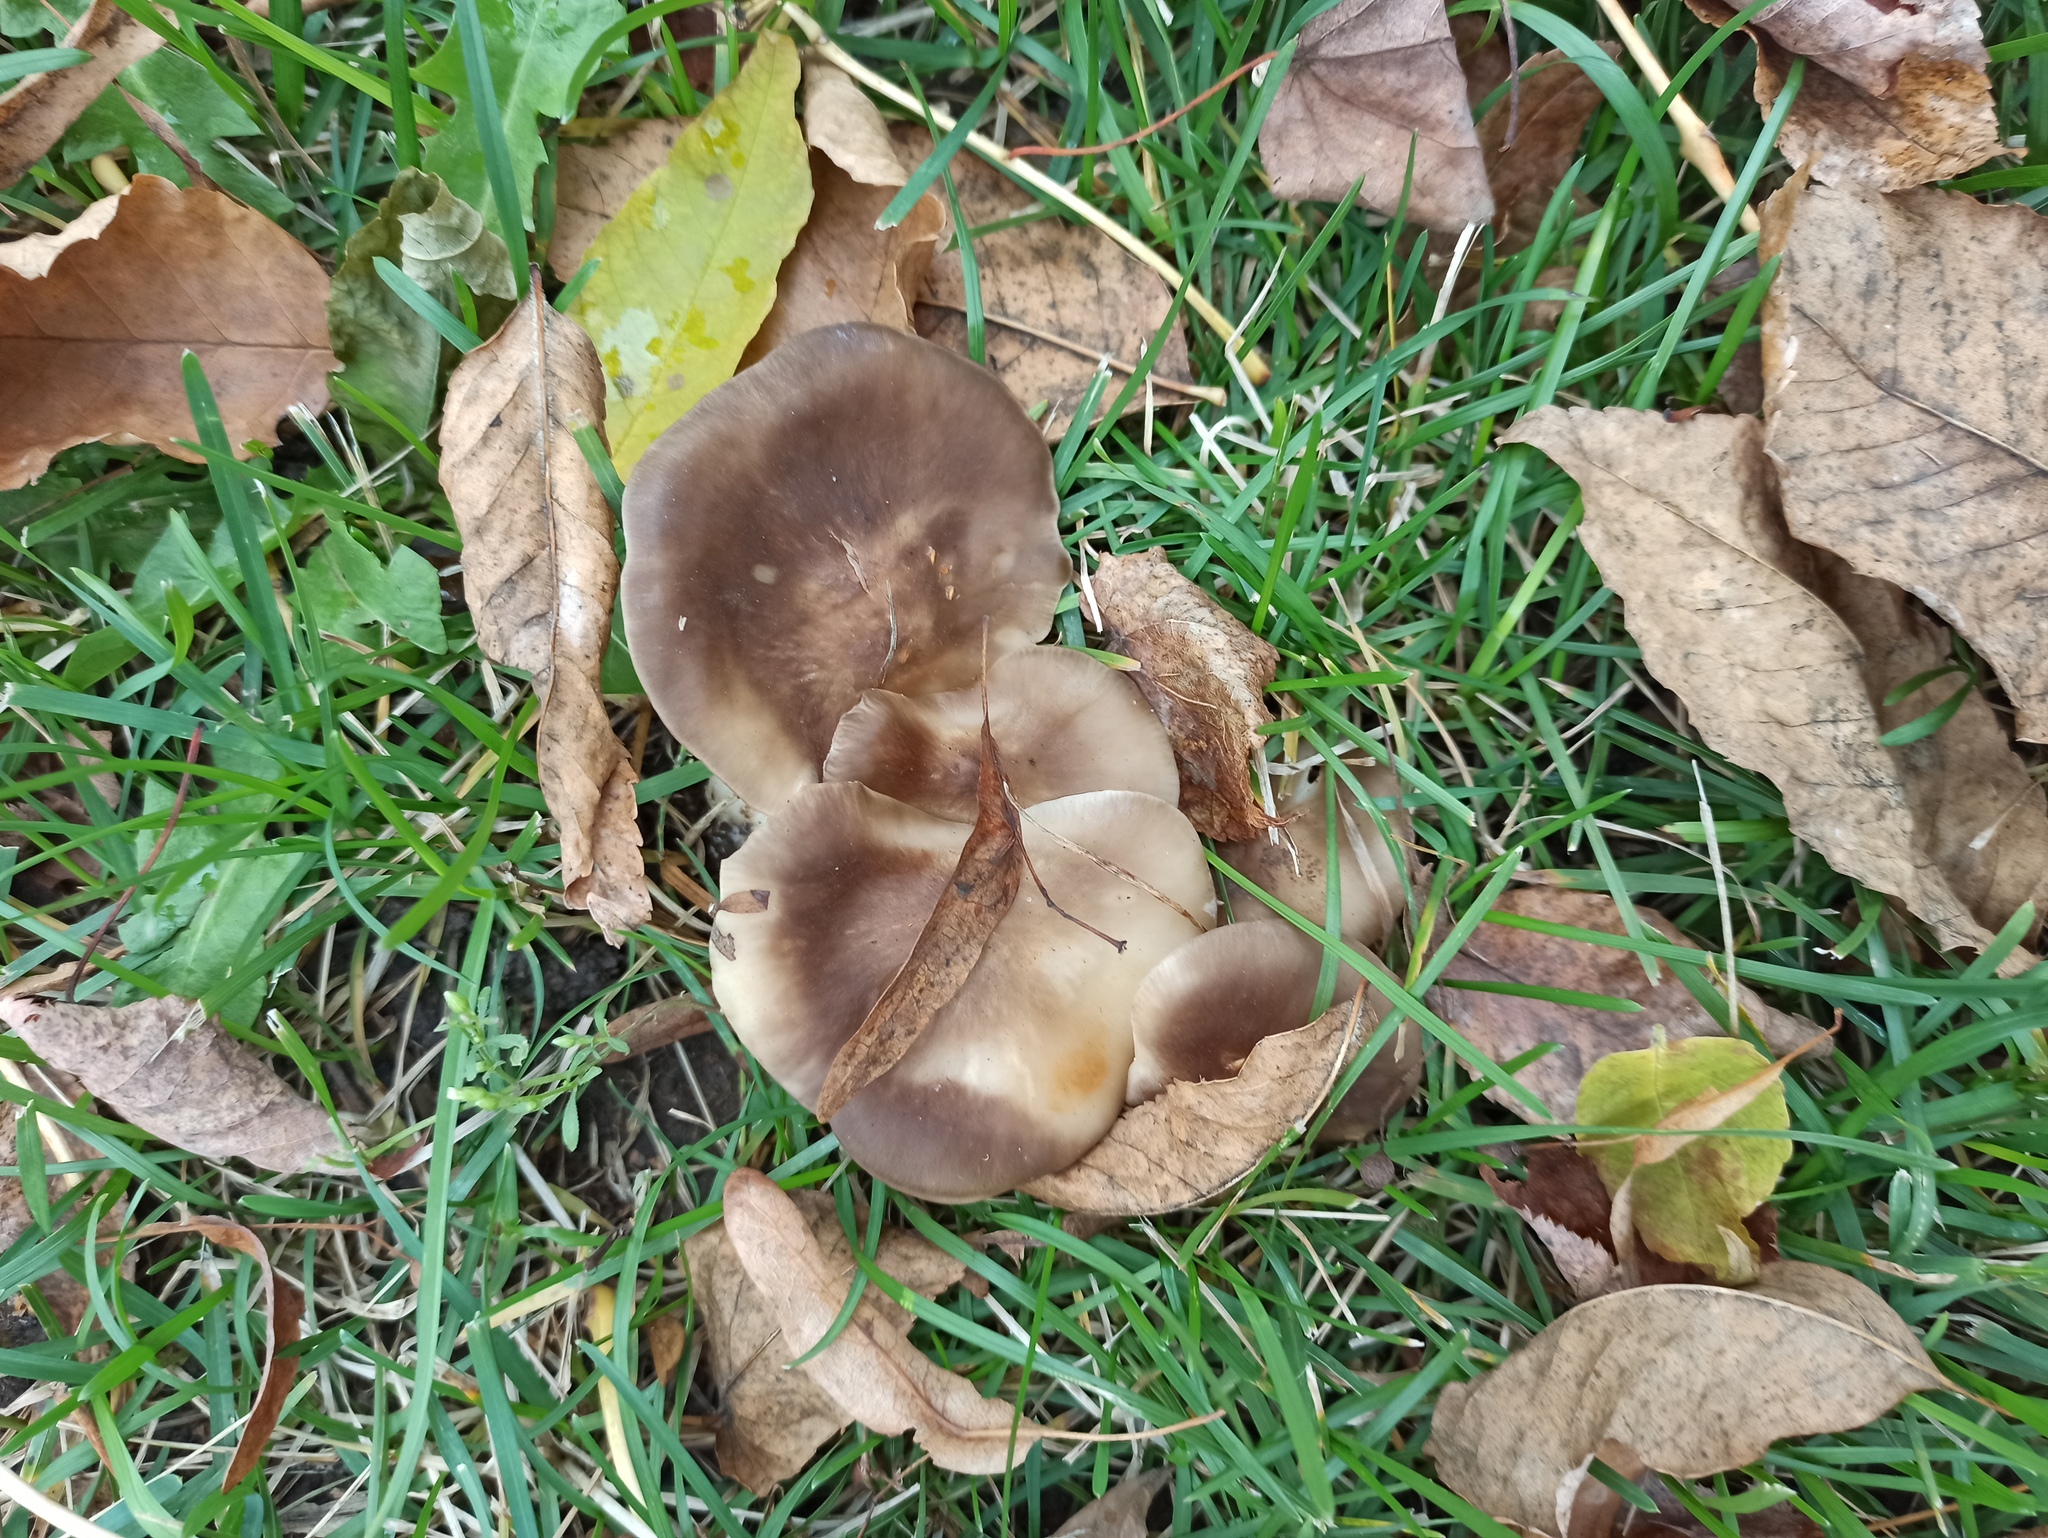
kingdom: Fungi
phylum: Basidiomycota
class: Agaricomycetes
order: Agaricales
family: Lyophyllaceae
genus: Lyophyllum
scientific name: Lyophyllum decastes
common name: Clustered domecap
